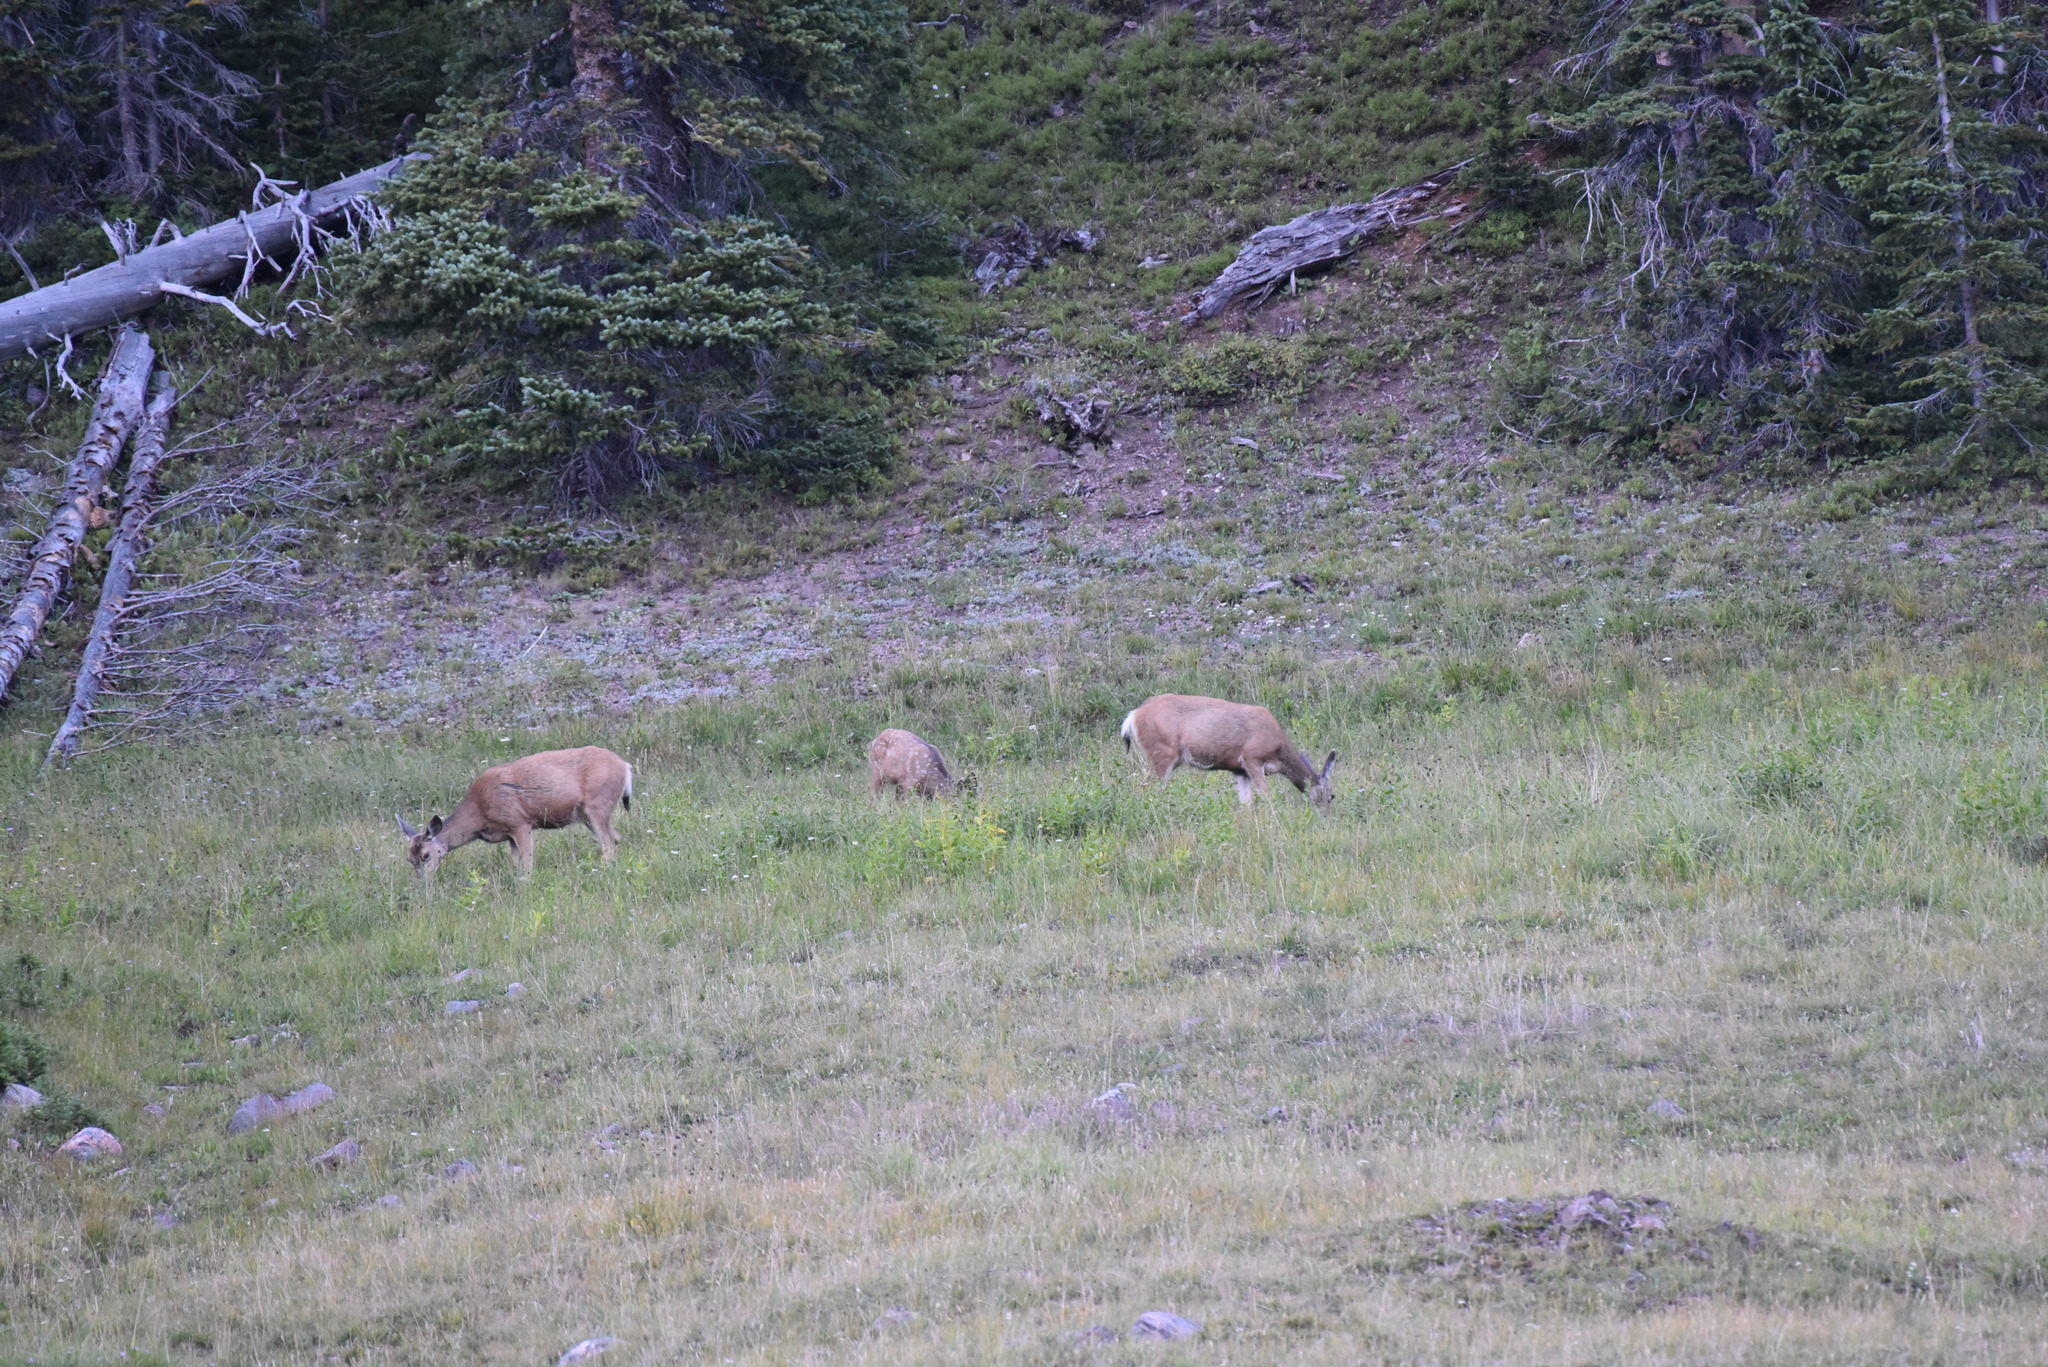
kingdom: Animalia
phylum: Chordata
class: Mammalia
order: Artiodactyla
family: Cervidae
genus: Odocoileus
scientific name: Odocoileus hemionus
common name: Mule deer
